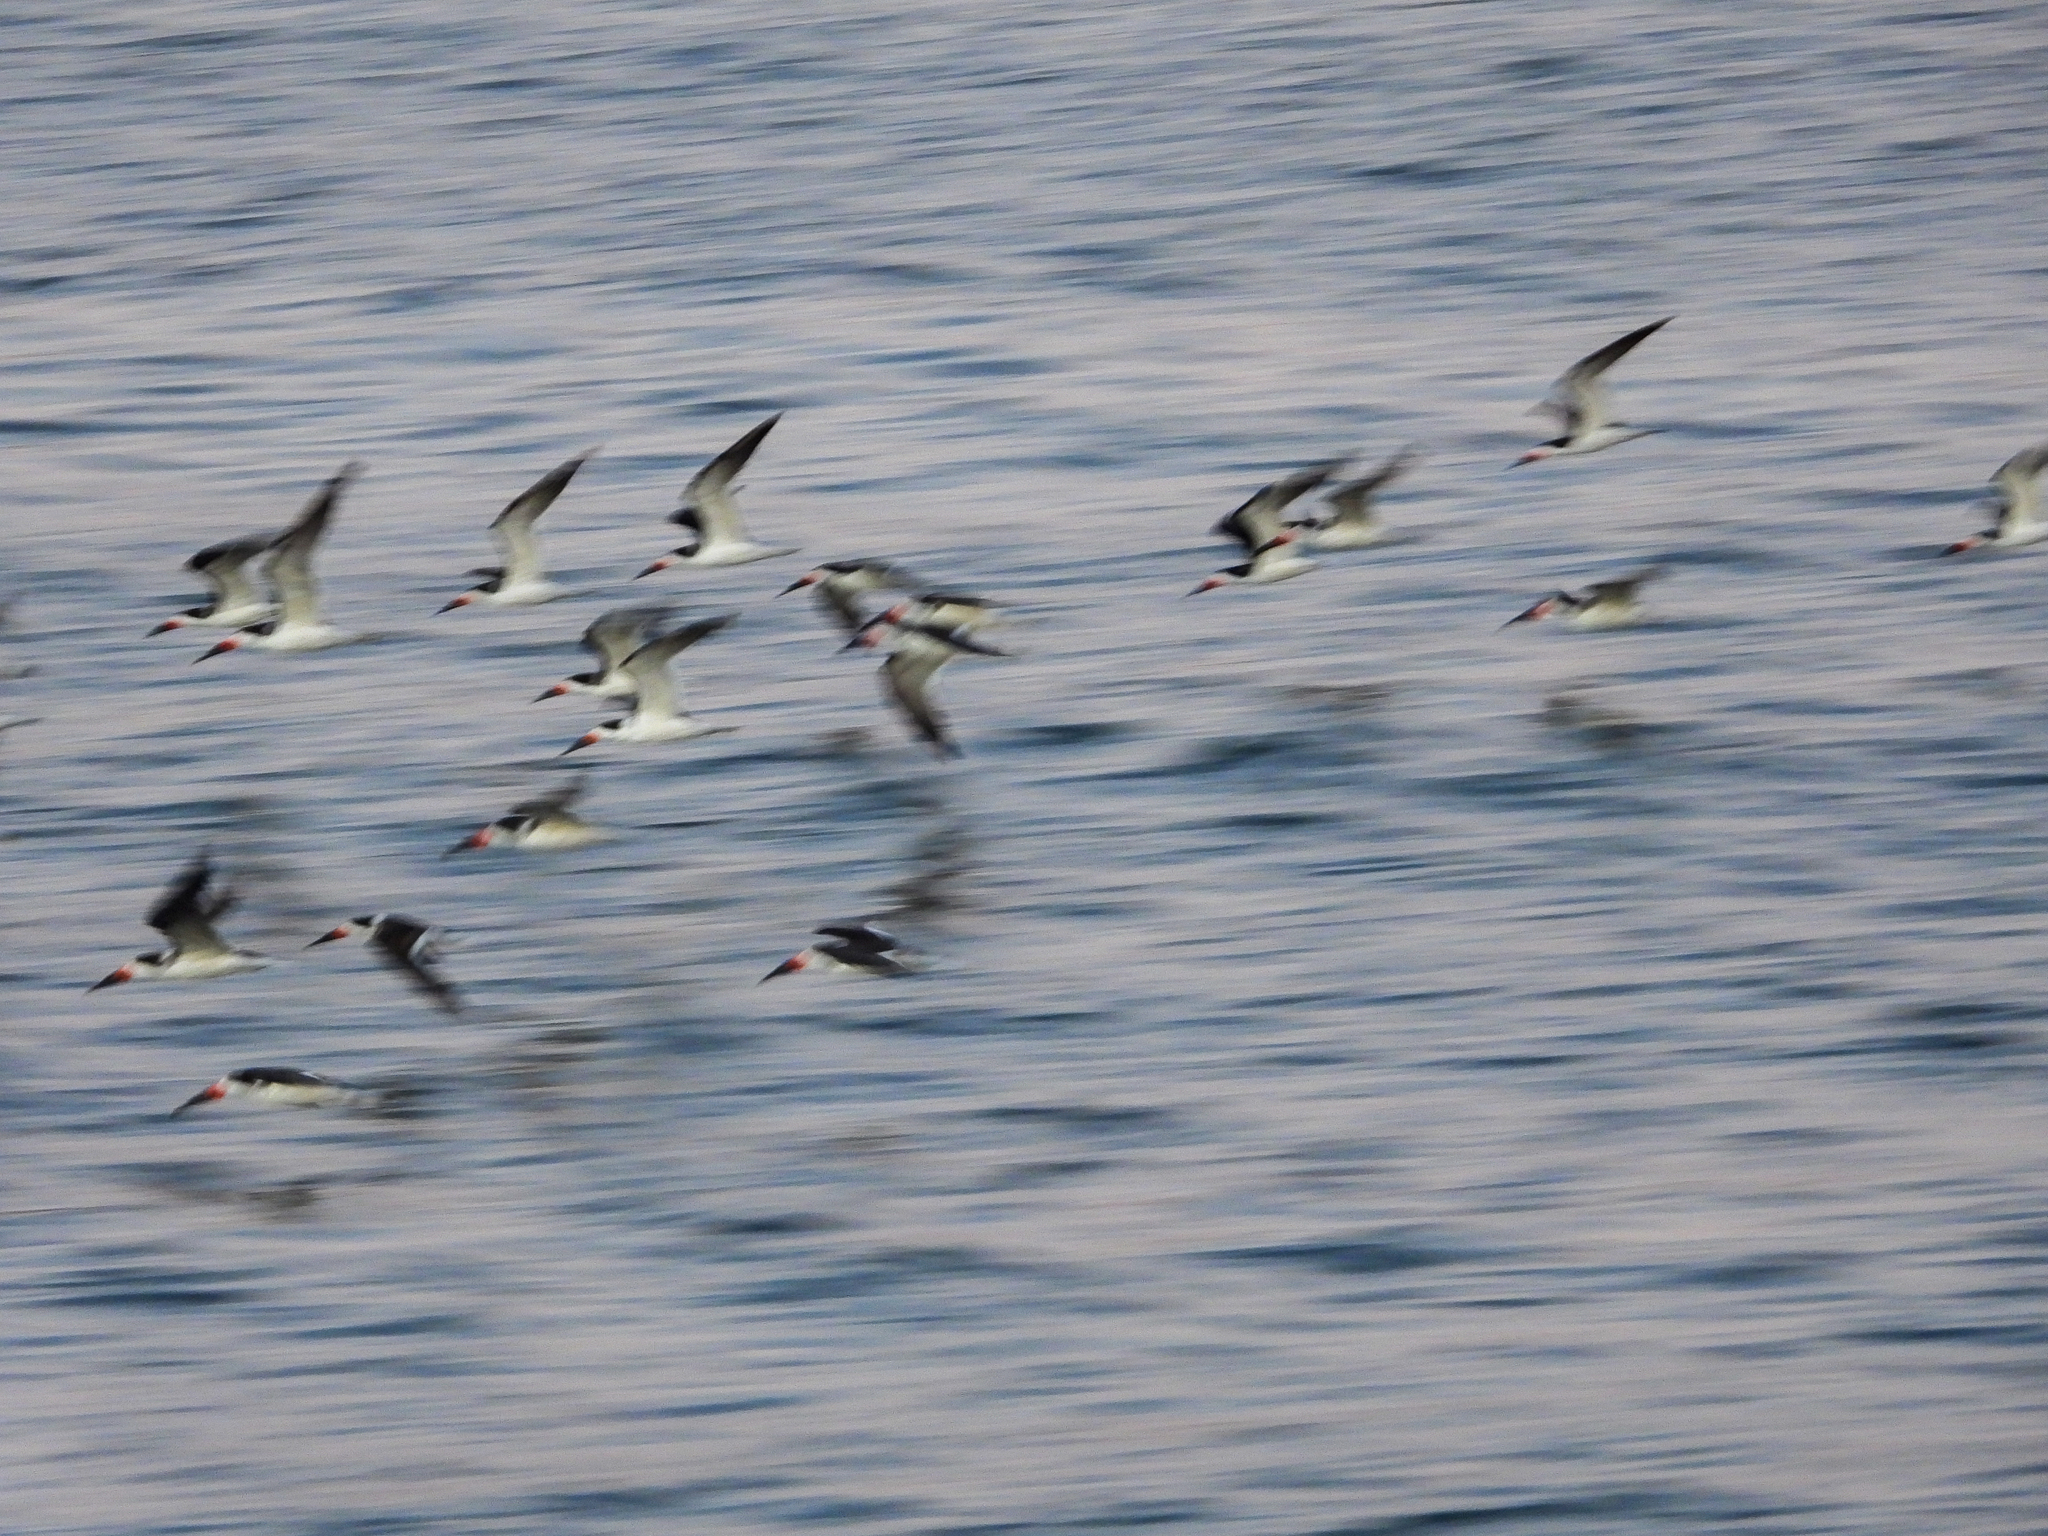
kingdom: Animalia
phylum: Chordata
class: Aves
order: Charadriiformes
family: Laridae
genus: Rynchops
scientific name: Rynchops niger
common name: Black skimmer
